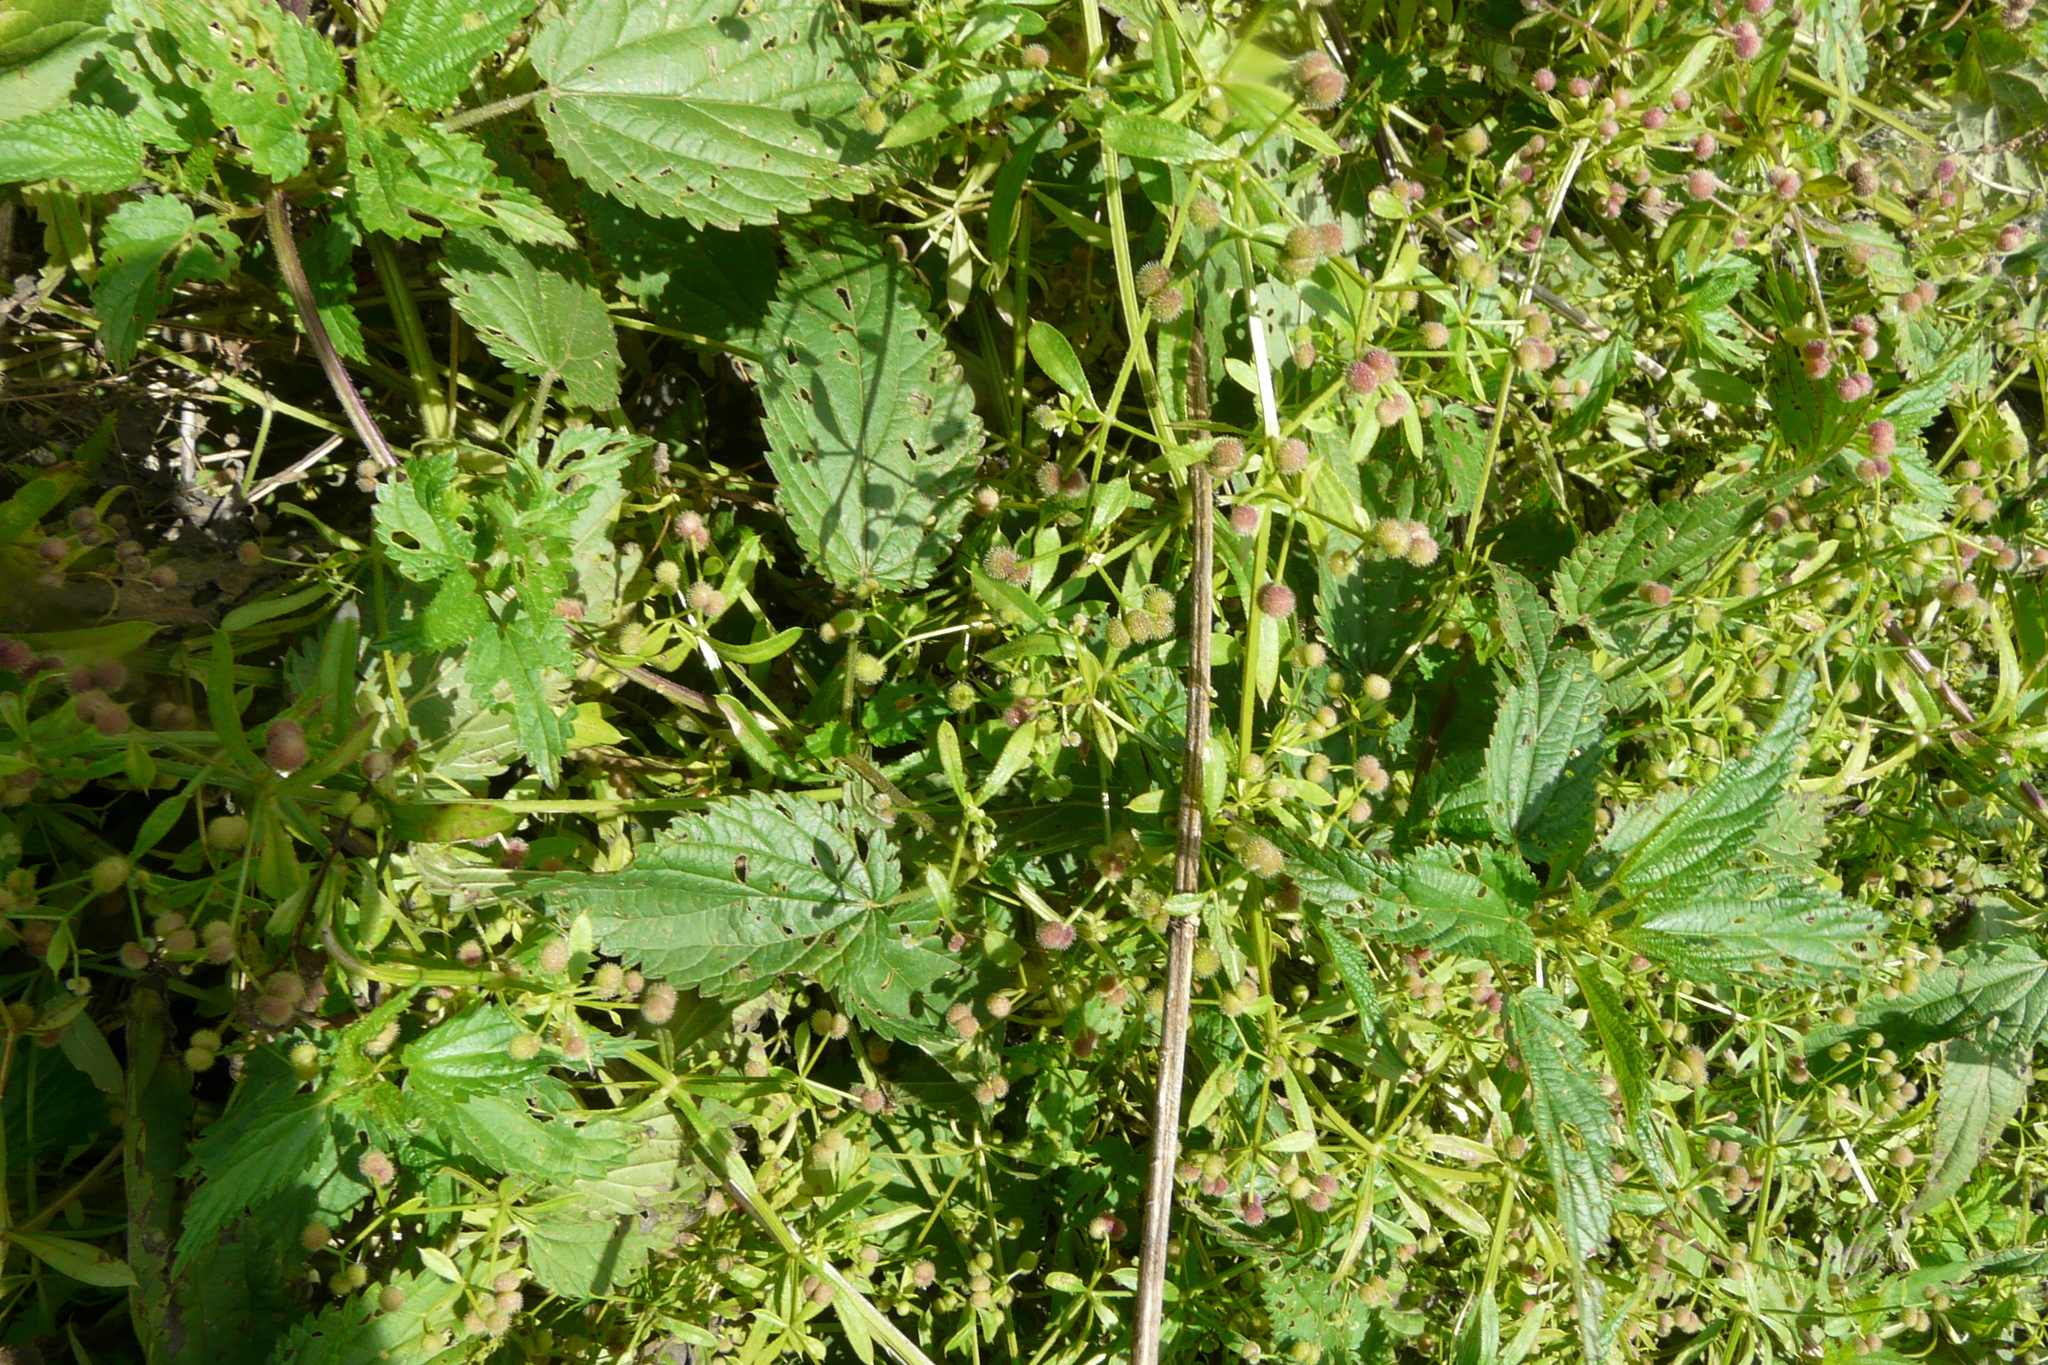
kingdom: Plantae
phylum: Tracheophyta
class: Magnoliopsida
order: Gentianales
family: Rubiaceae
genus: Galium
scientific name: Galium aparine
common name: Cleavers
